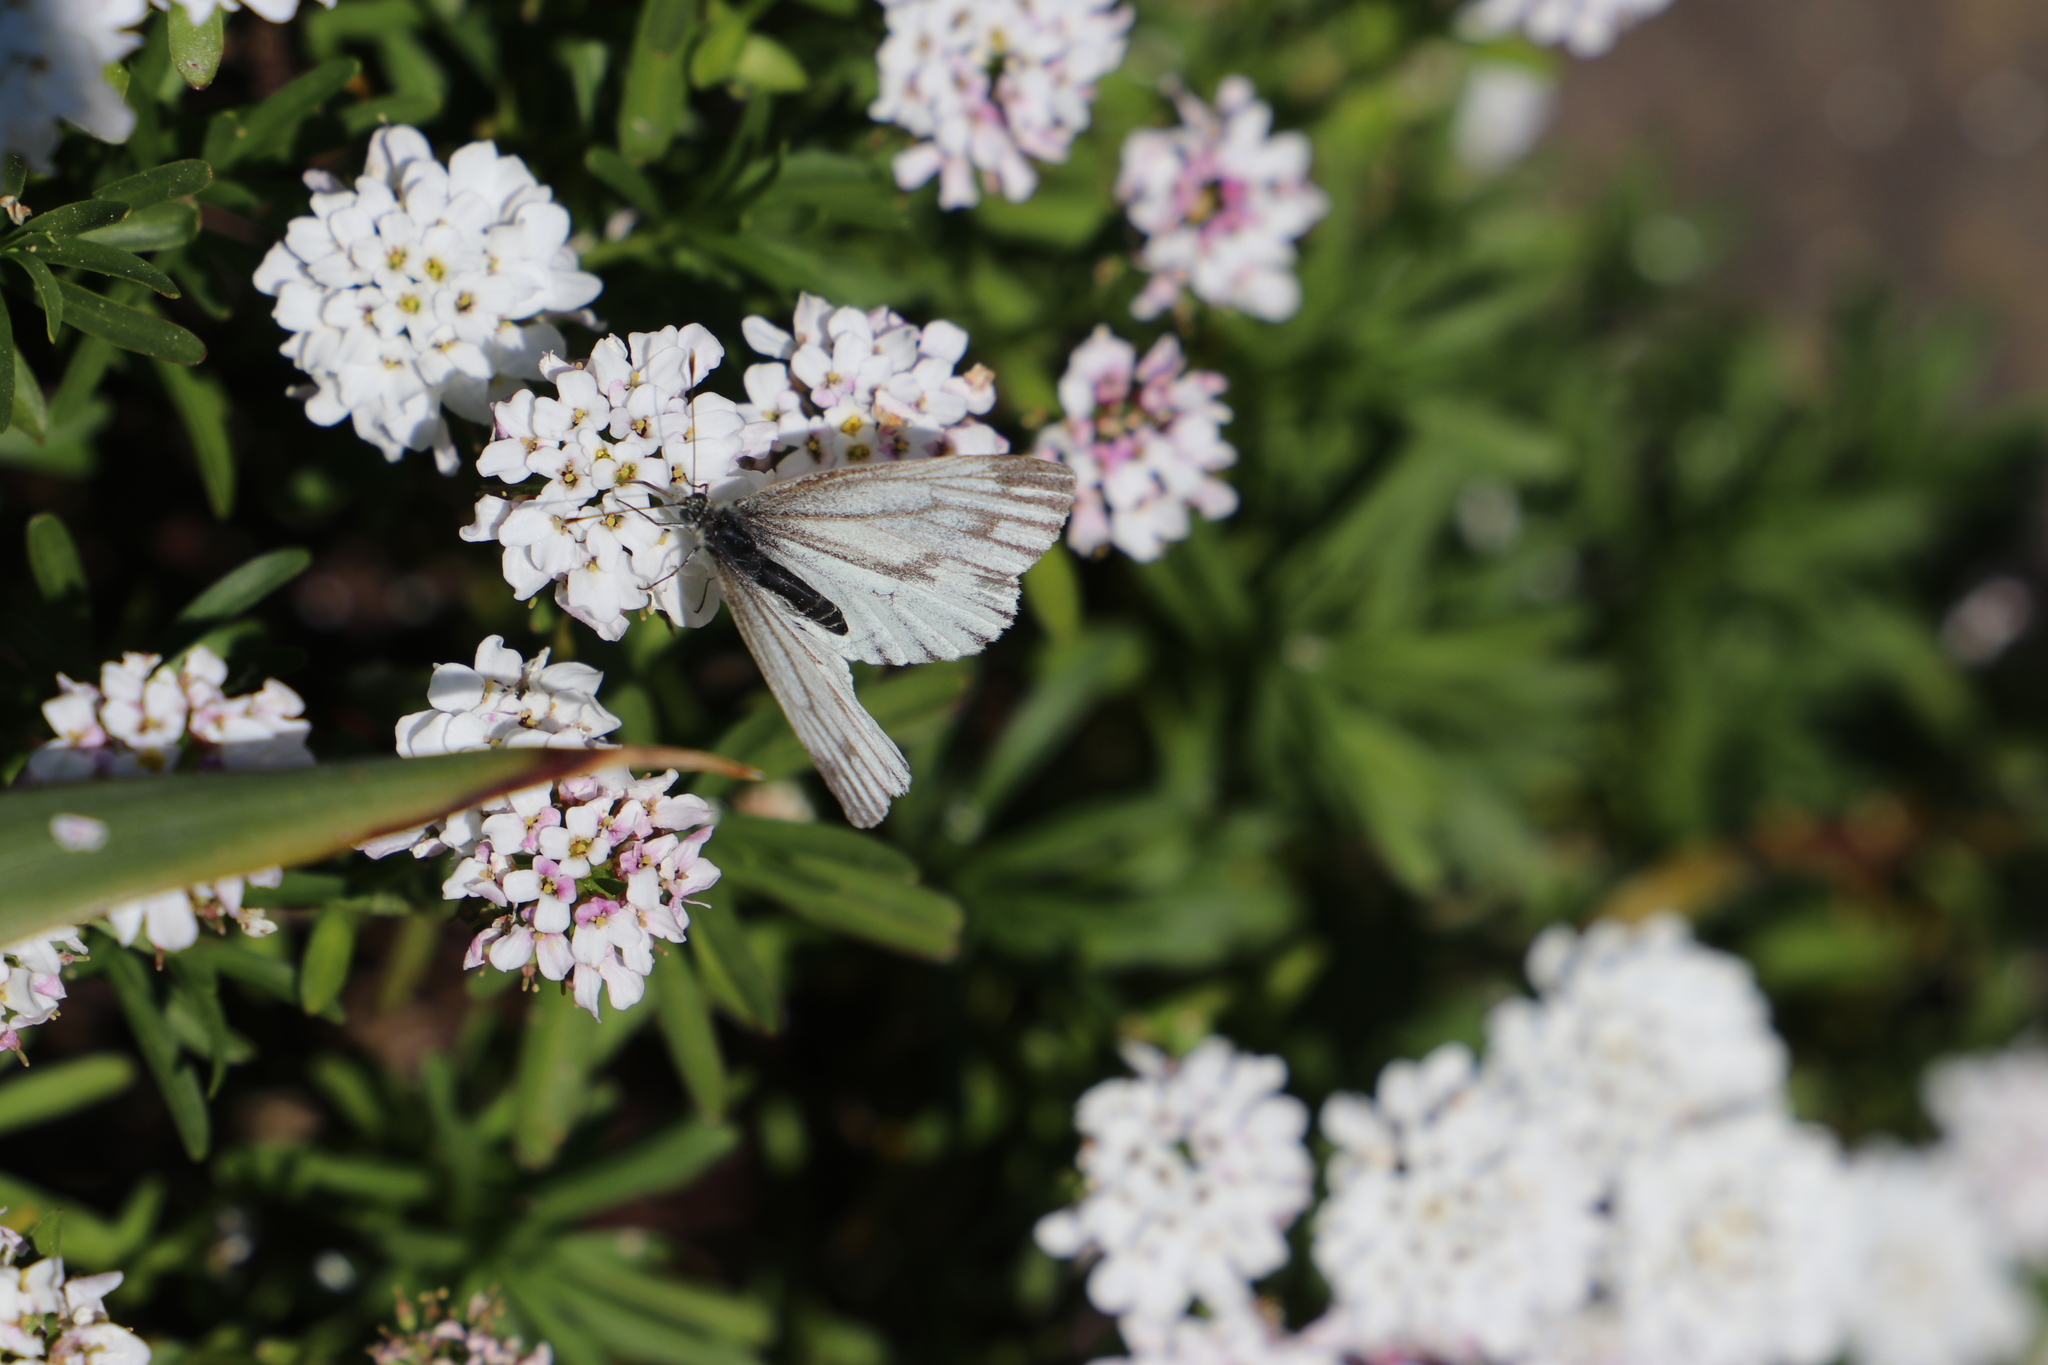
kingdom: Animalia
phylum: Arthropoda
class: Insecta
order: Lepidoptera
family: Pieridae
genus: Pieris
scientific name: Pieris napi
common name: Green-veined white
